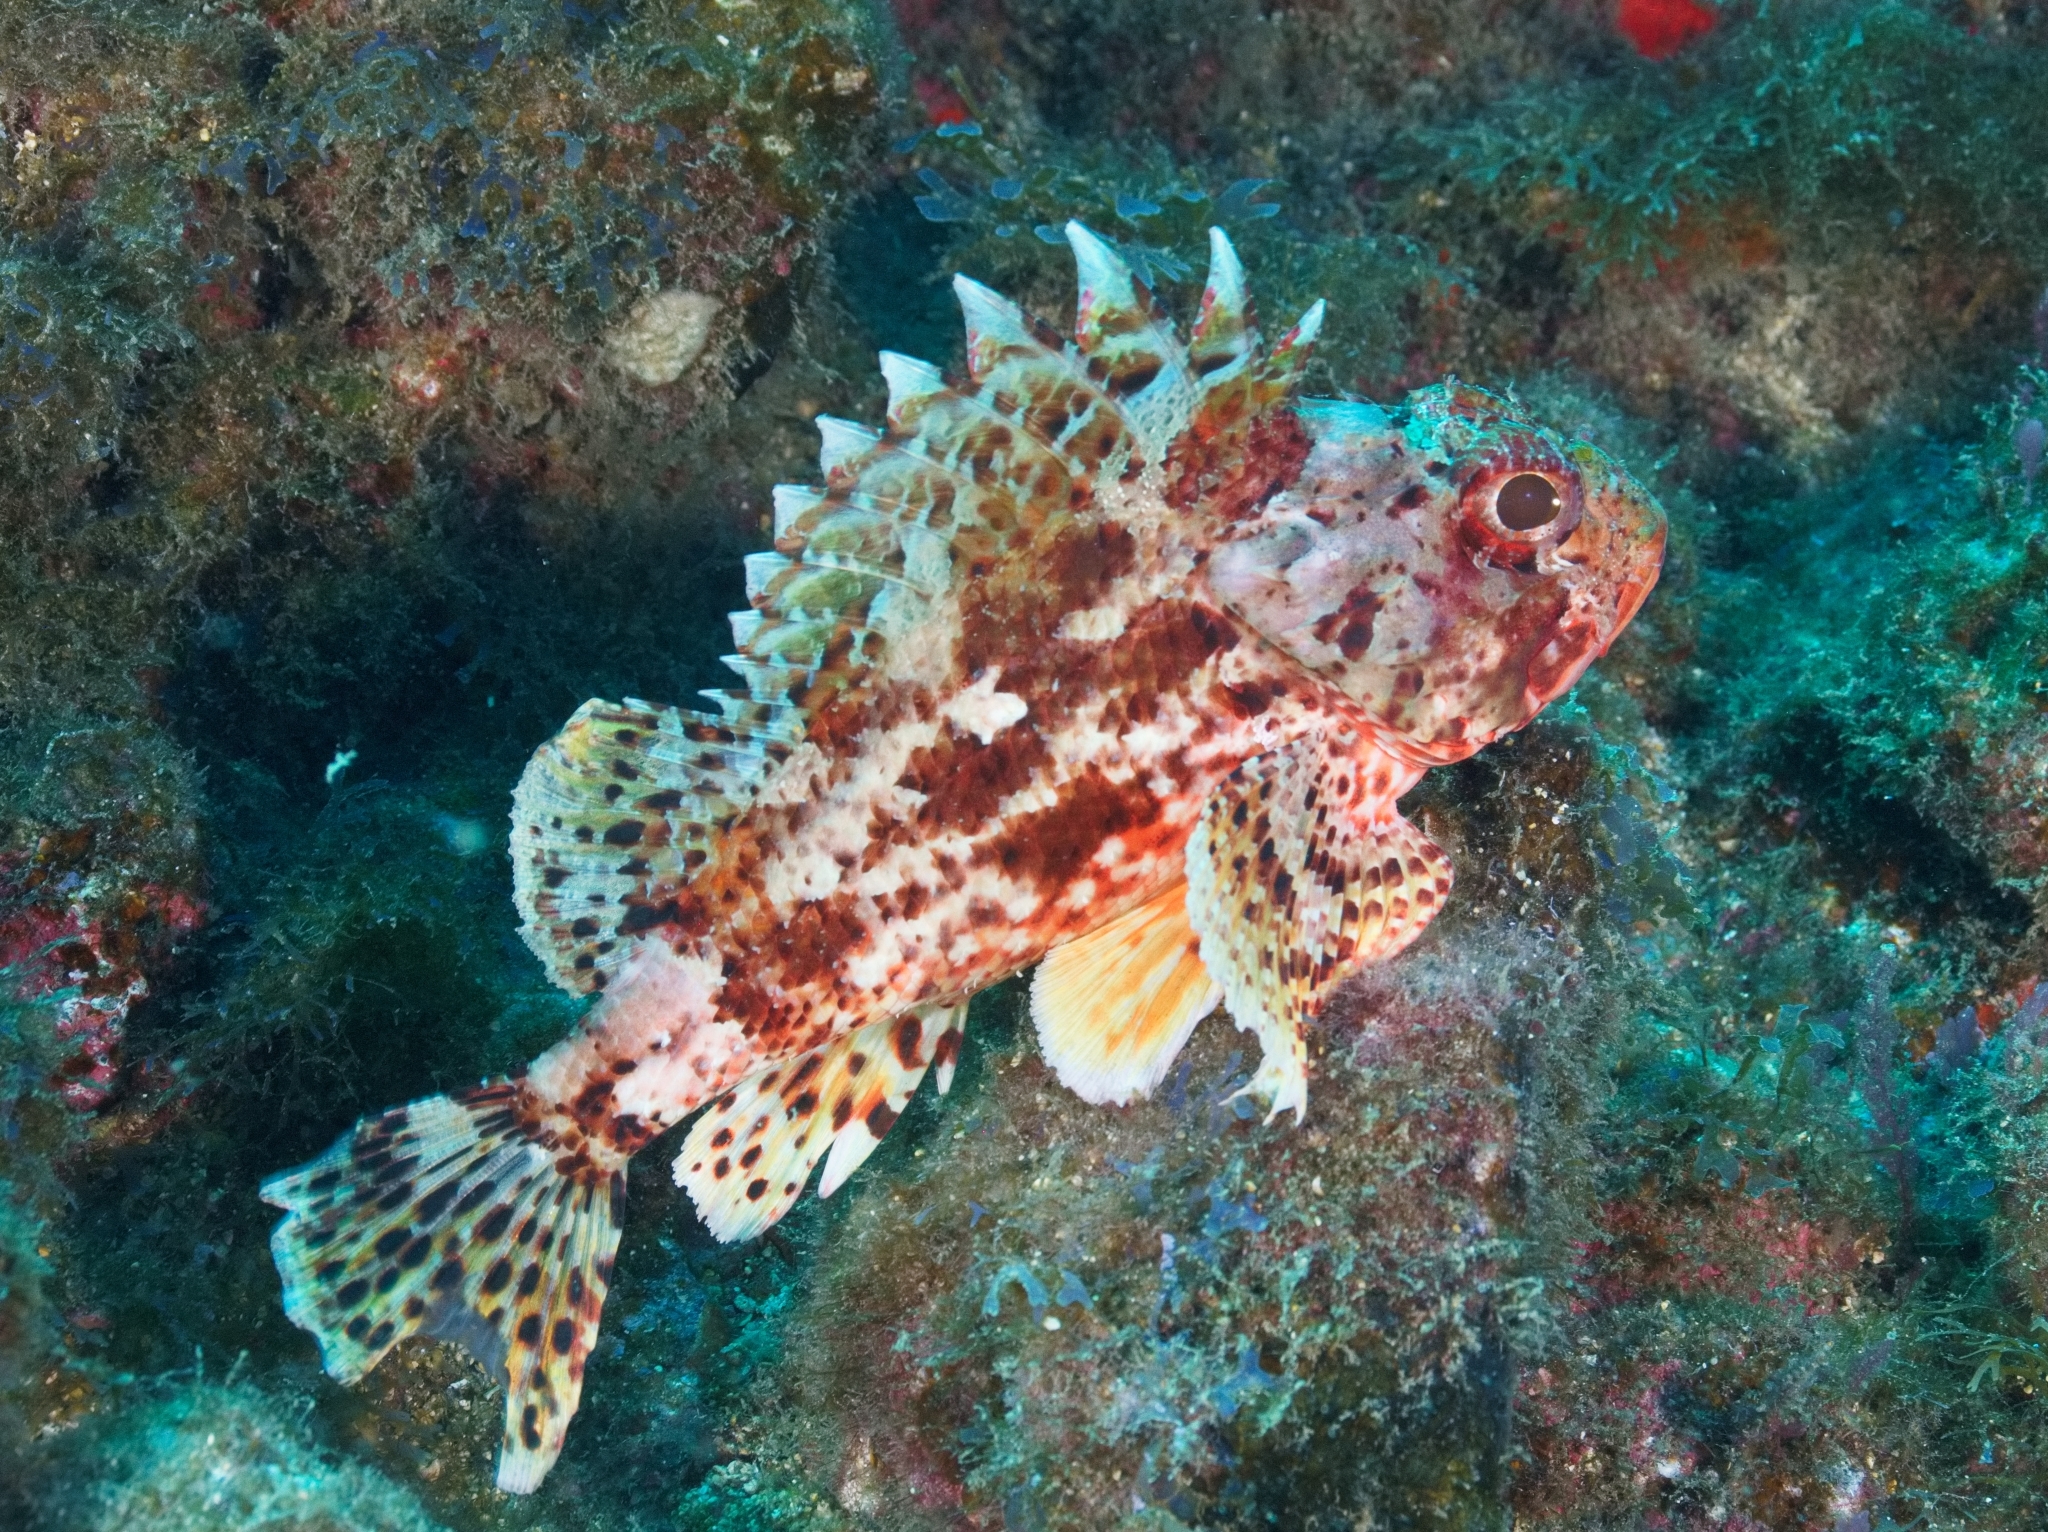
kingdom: Animalia
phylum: Chordata
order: Scorpaeniformes
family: Scorpaenidae
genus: Scorpaena
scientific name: Scorpaena notata
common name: Small red scorpionfish
